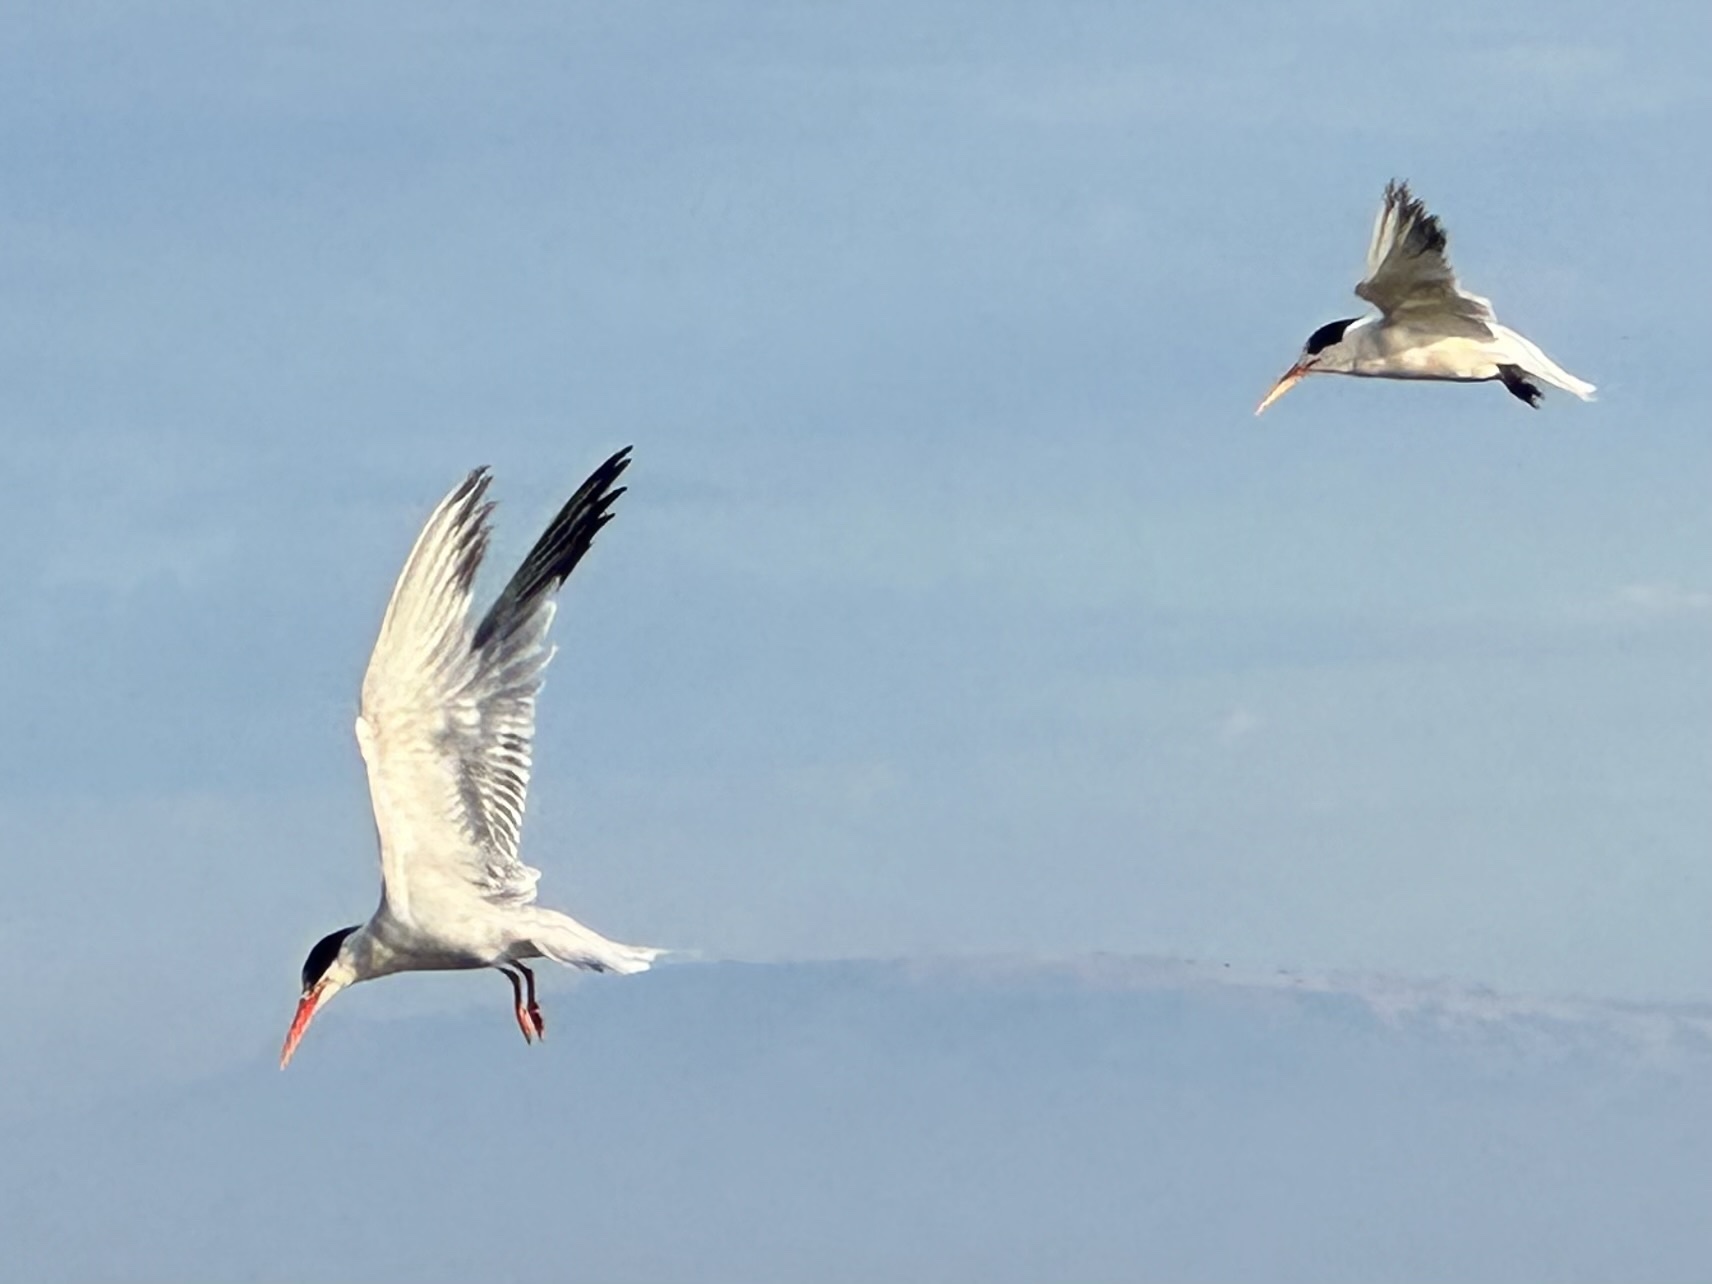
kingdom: Animalia
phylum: Chordata
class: Aves
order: Charadriiformes
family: Laridae
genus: Thalasseus
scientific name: Thalasseus elegans
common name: Elegant tern
